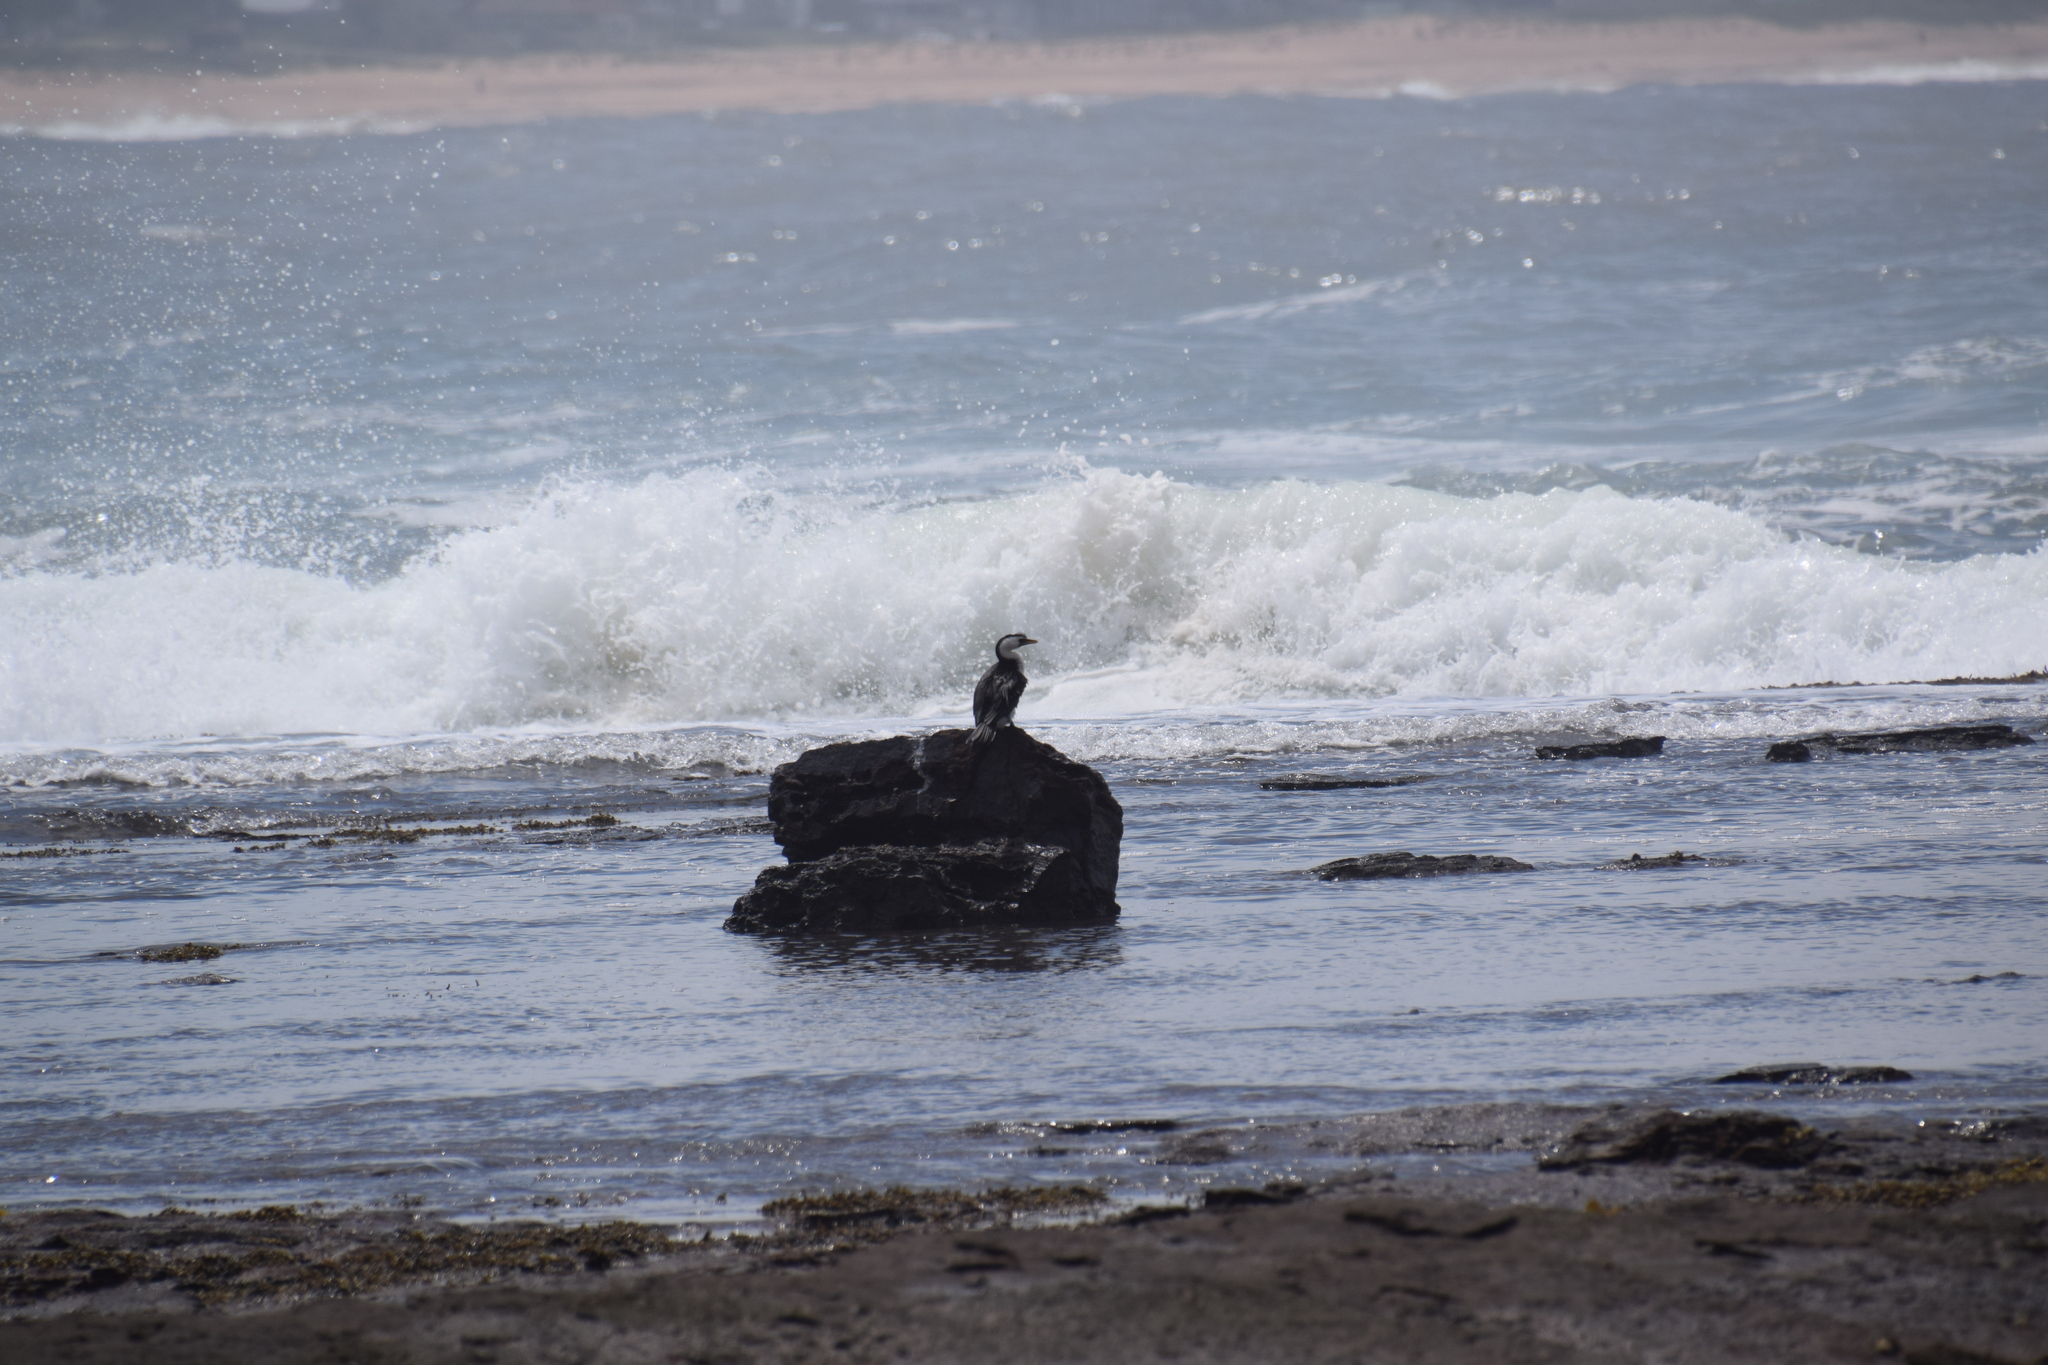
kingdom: Animalia
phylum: Chordata
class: Aves
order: Suliformes
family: Phalacrocoracidae
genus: Microcarbo
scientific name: Microcarbo melanoleucos
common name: Little pied cormorant
